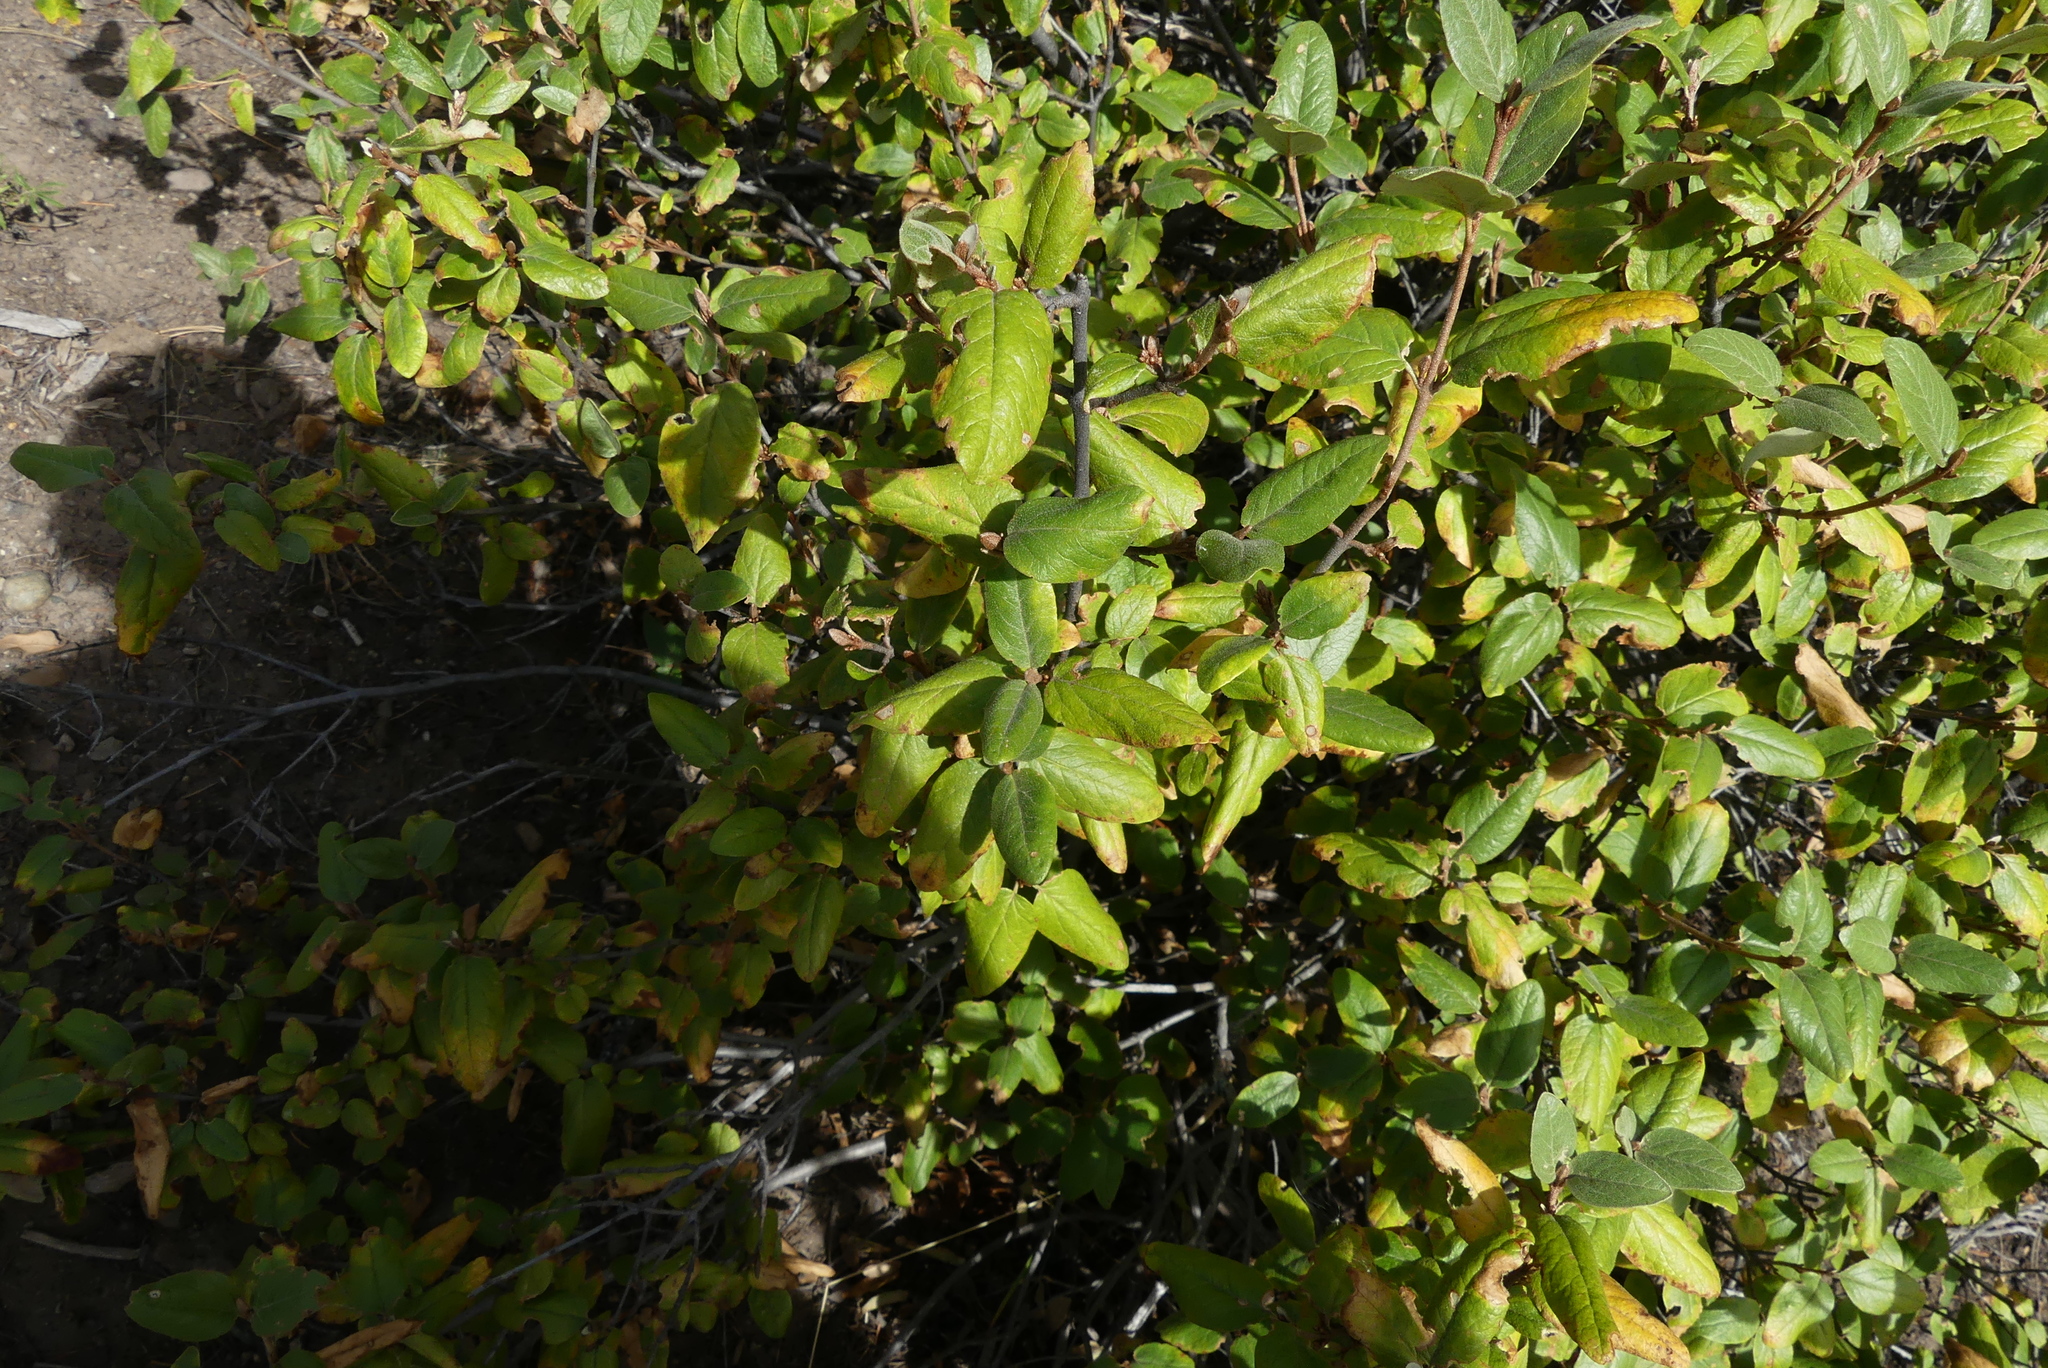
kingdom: Plantae
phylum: Tracheophyta
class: Magnoliopsida
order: Rosales
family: Elaeagnaceae
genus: Shepherdia
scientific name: Shepherdia canadensis
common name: Soapberry
